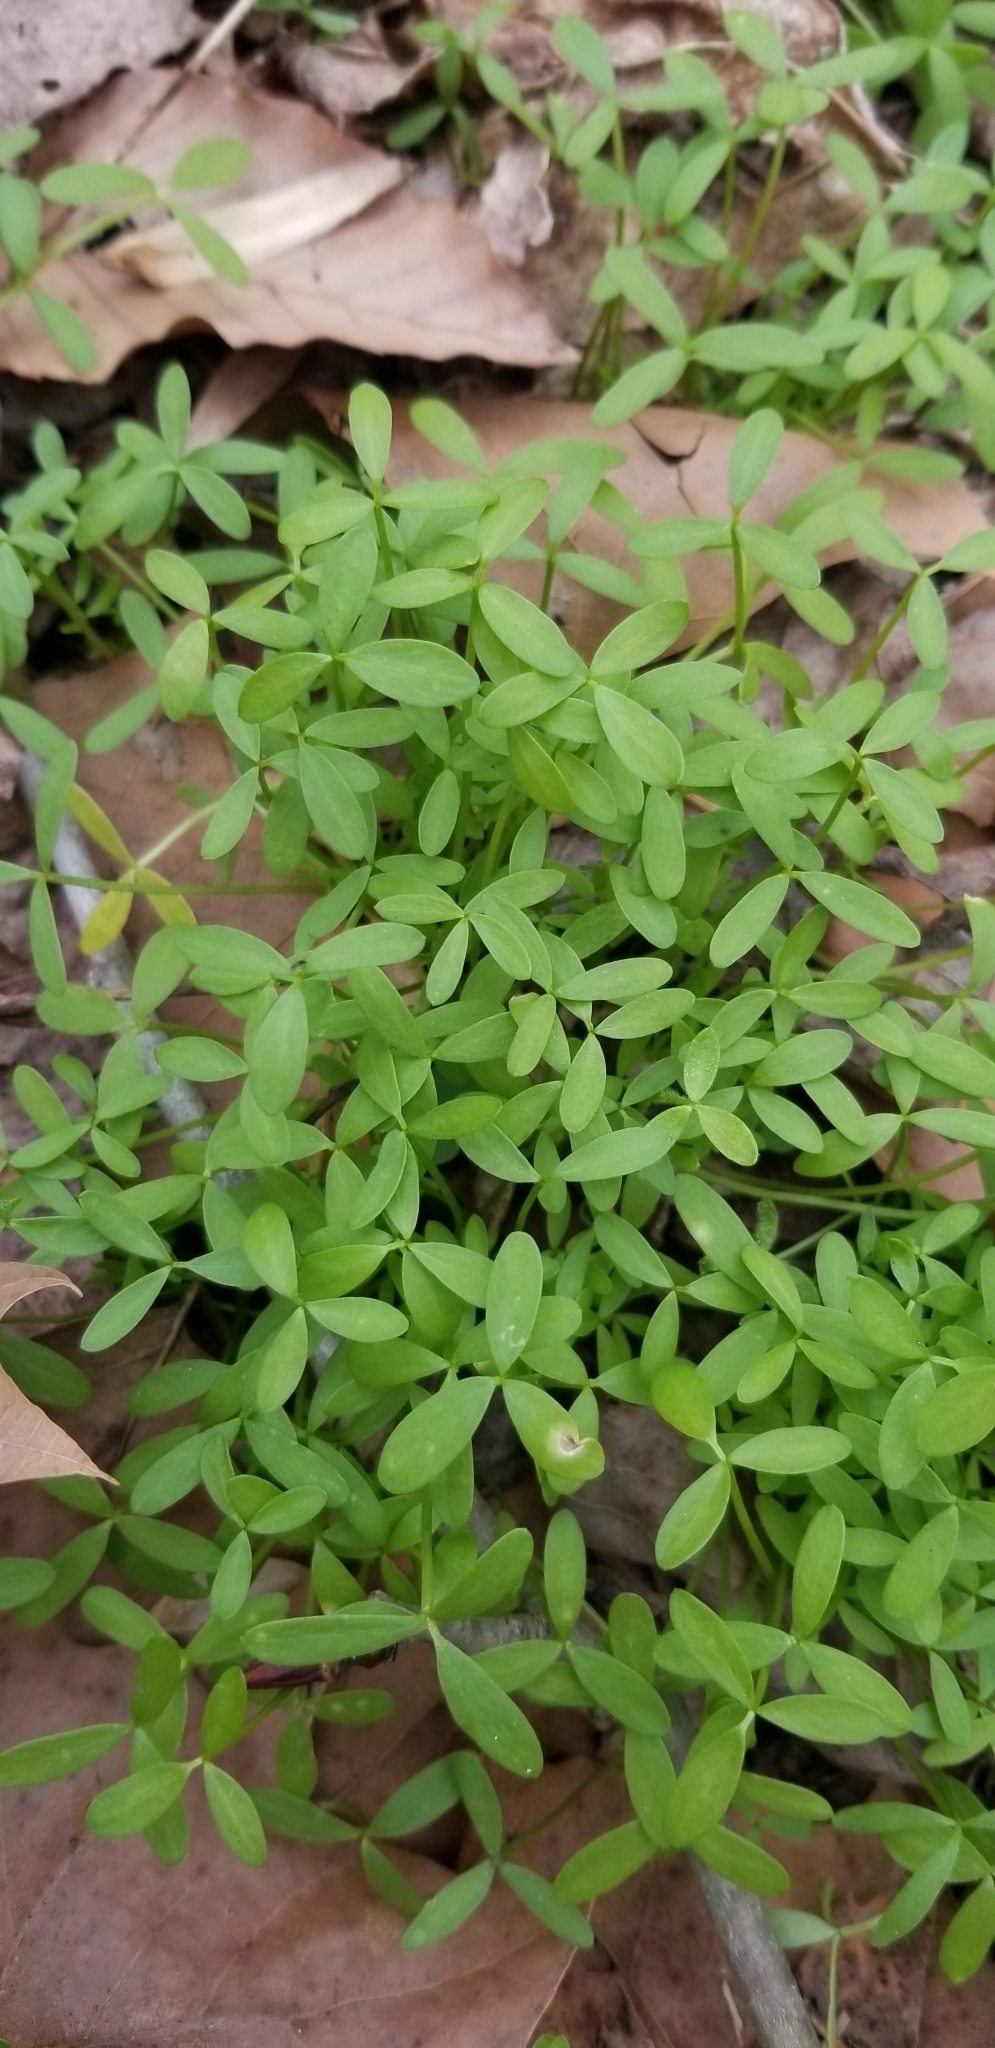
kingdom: Plantae
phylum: Tracheophyta
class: Magnoliopsida
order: Brassicales
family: Limnanthaceae
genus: Floerkea
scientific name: Floerkea proserpinacoides
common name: False mermaid
